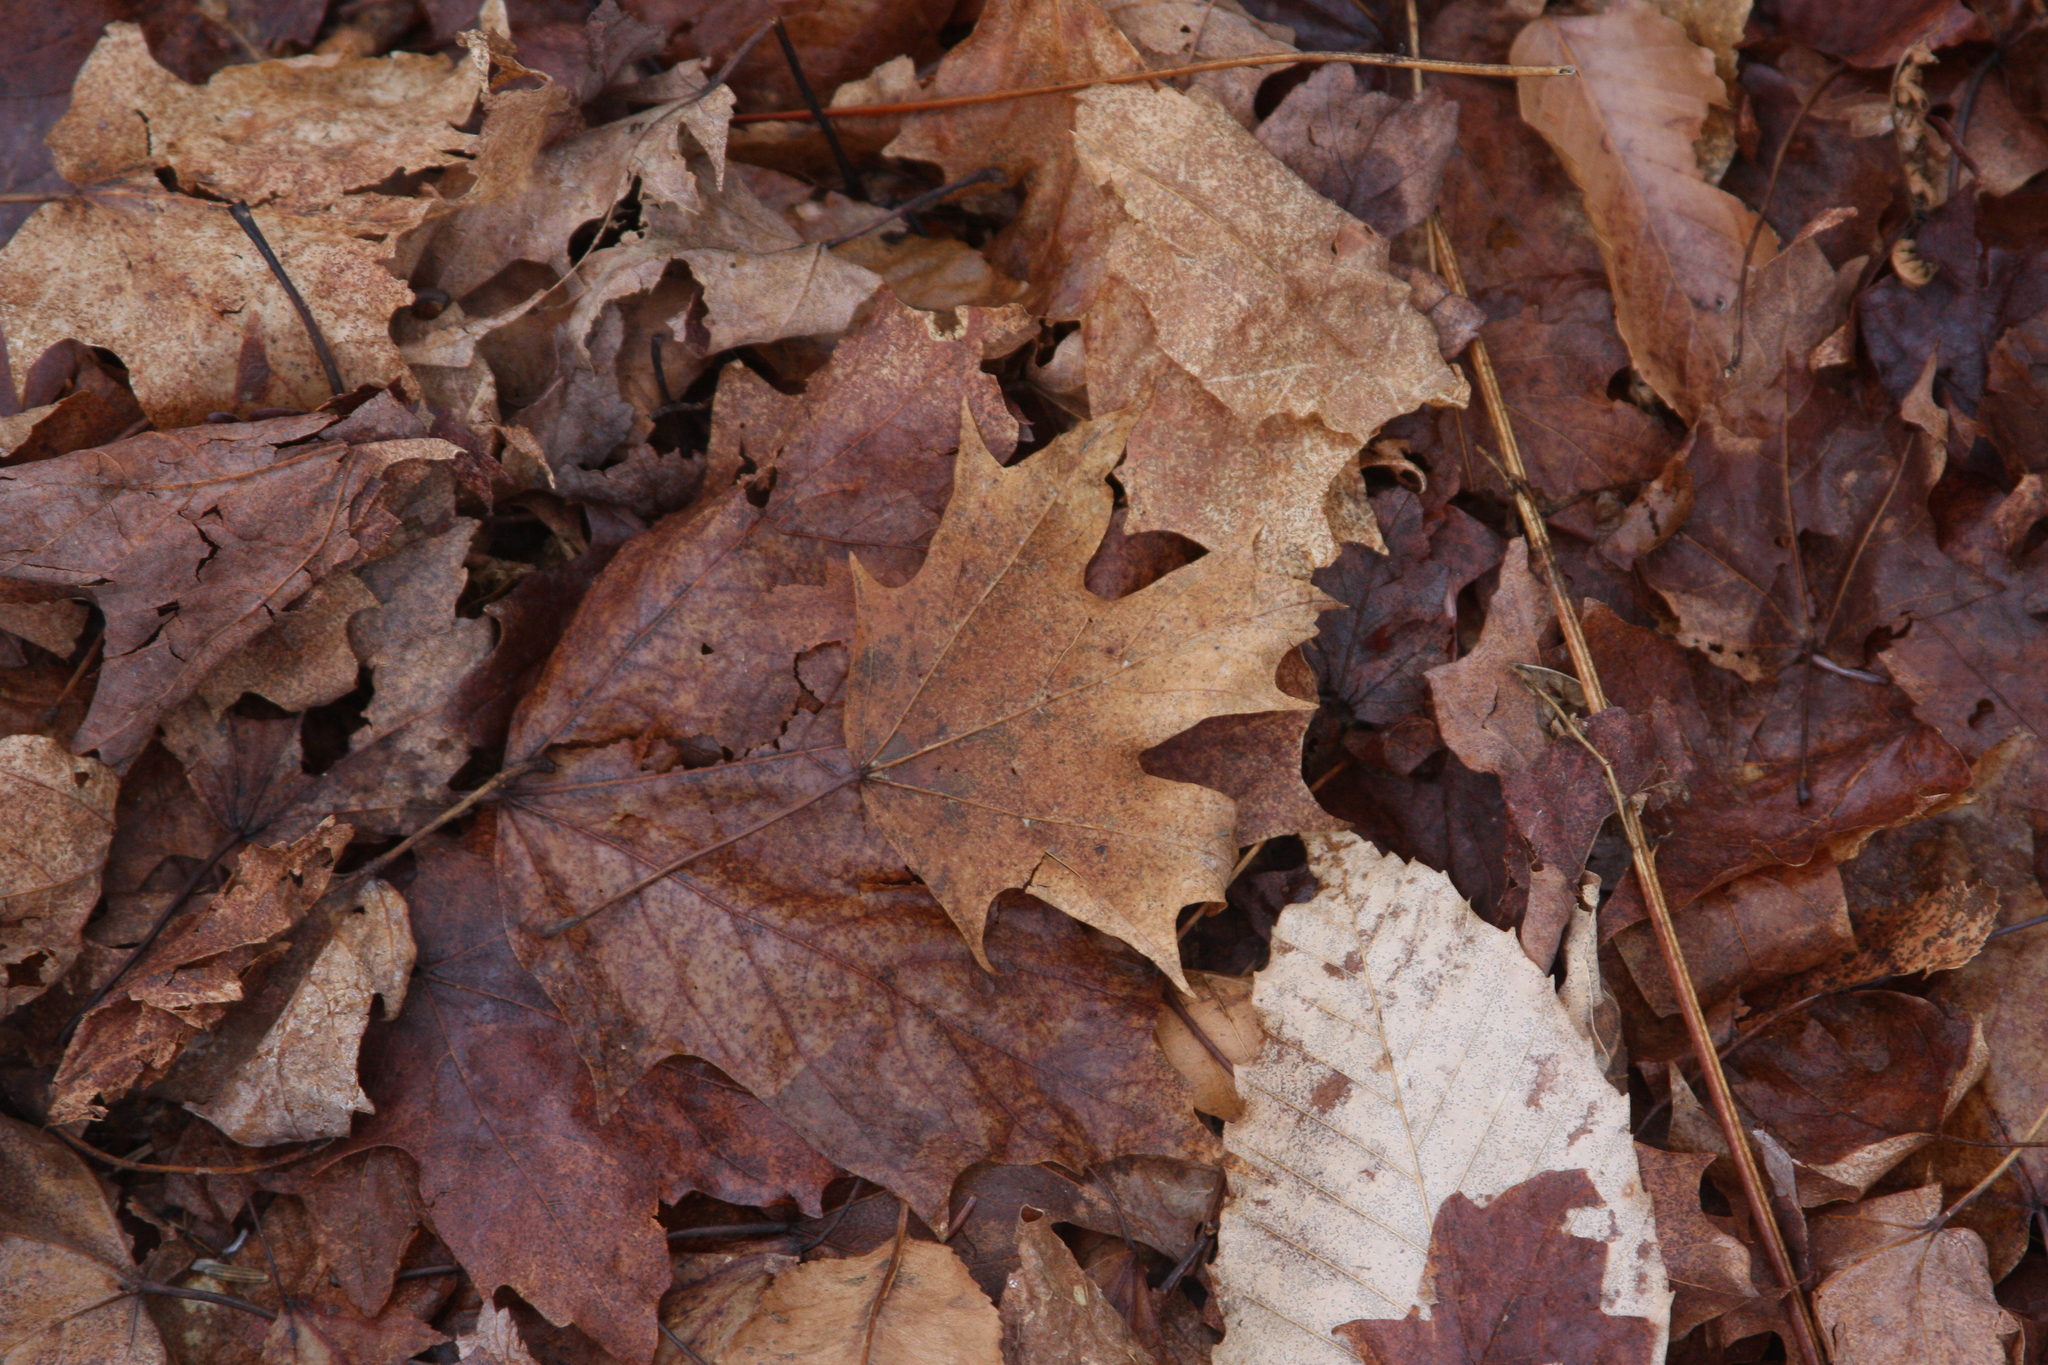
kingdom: Plantae
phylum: Tracheophyta
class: Magnoliopsida
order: Sapindales
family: Sapindaceae
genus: Acer
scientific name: Acer saccharum
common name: Sugar maple
